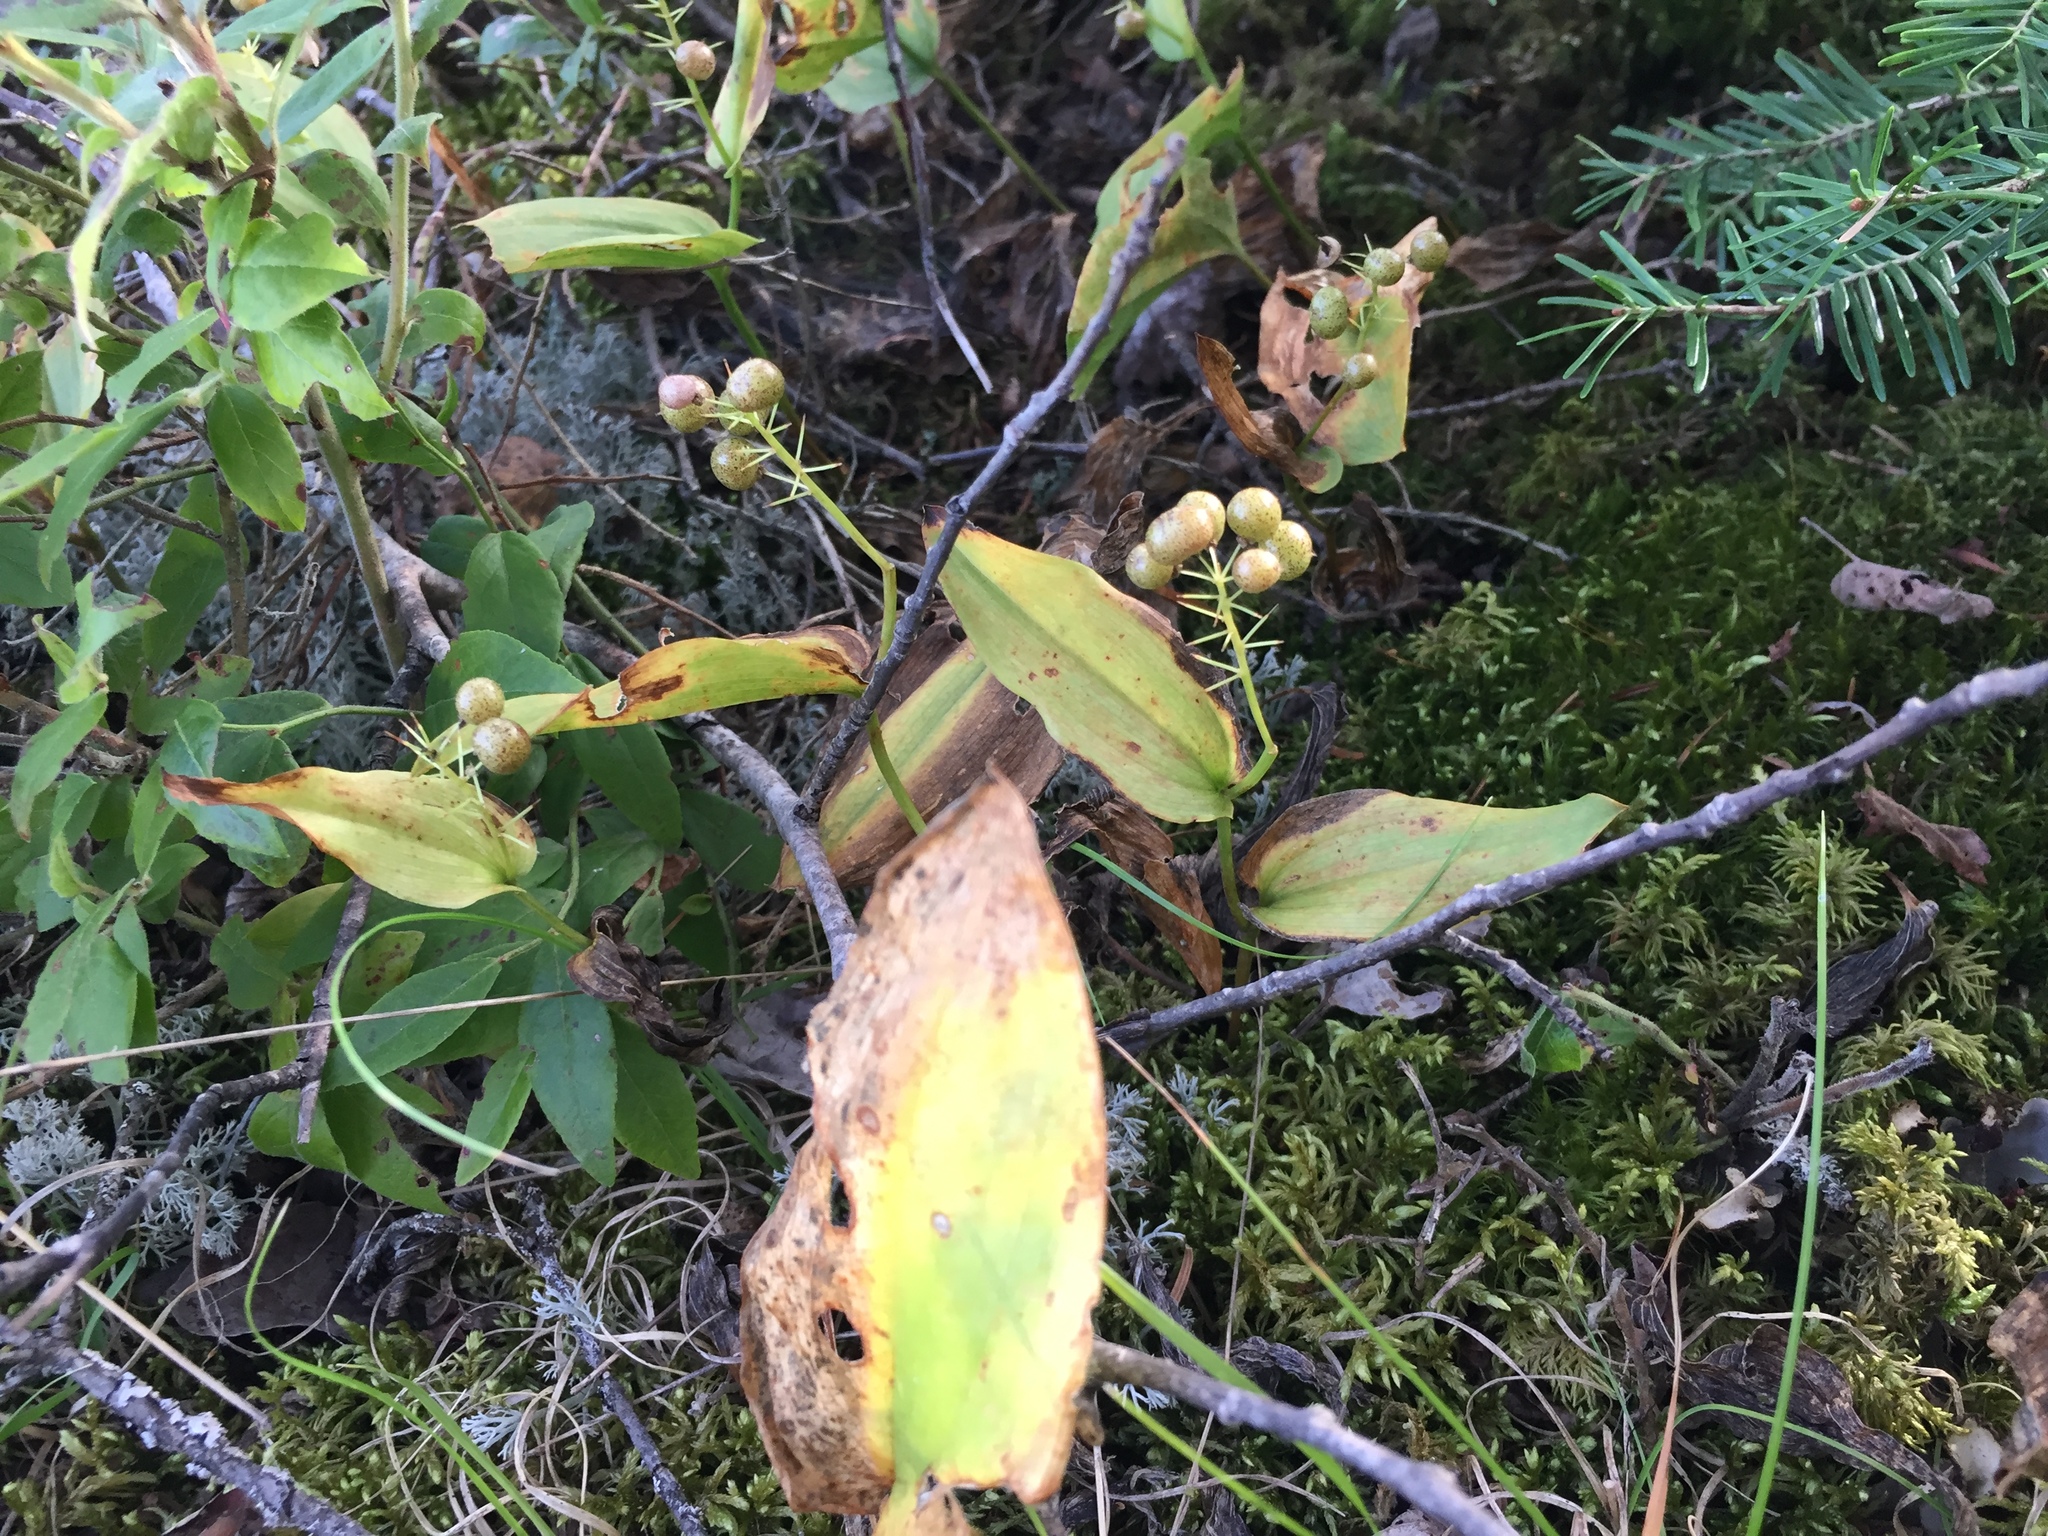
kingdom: Plantae
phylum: Tracheophyta
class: Liliopsida
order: Asparagales
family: Asparagaceae
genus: Maianthemum
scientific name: Maianthemum canadense
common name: False lily-of-the-valley
